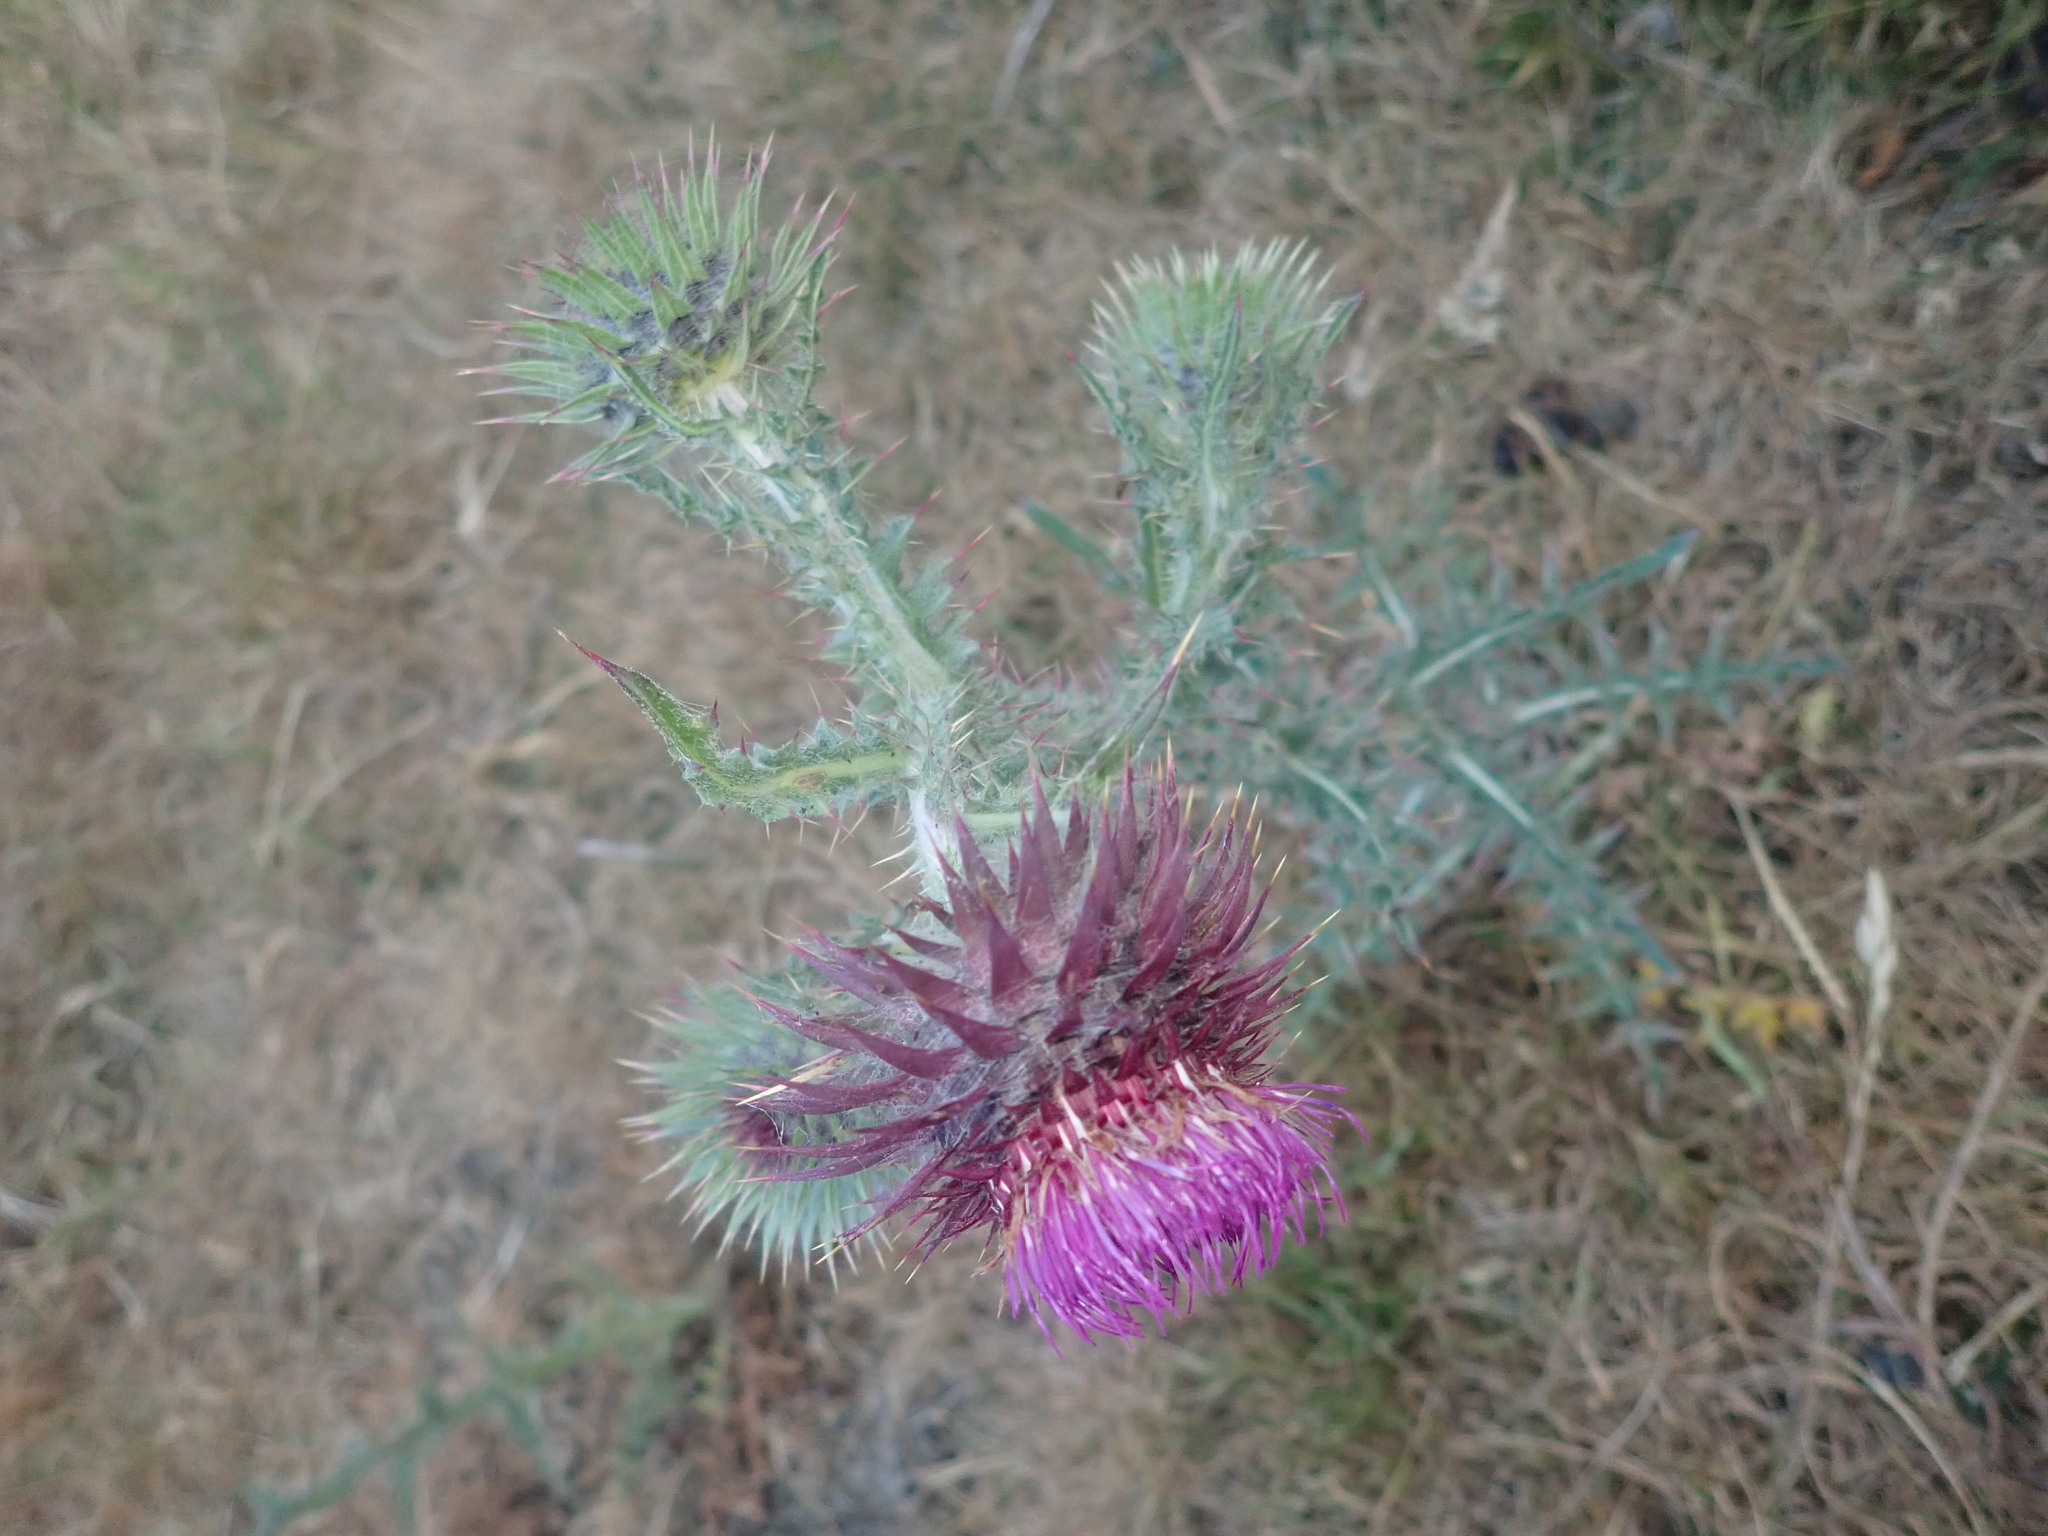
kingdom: Plantae
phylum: Tracheophyta
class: Magnoliopsida
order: Asterales
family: Asteraceae
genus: Carduus
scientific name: Carduus nutans
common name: Musk thistle
